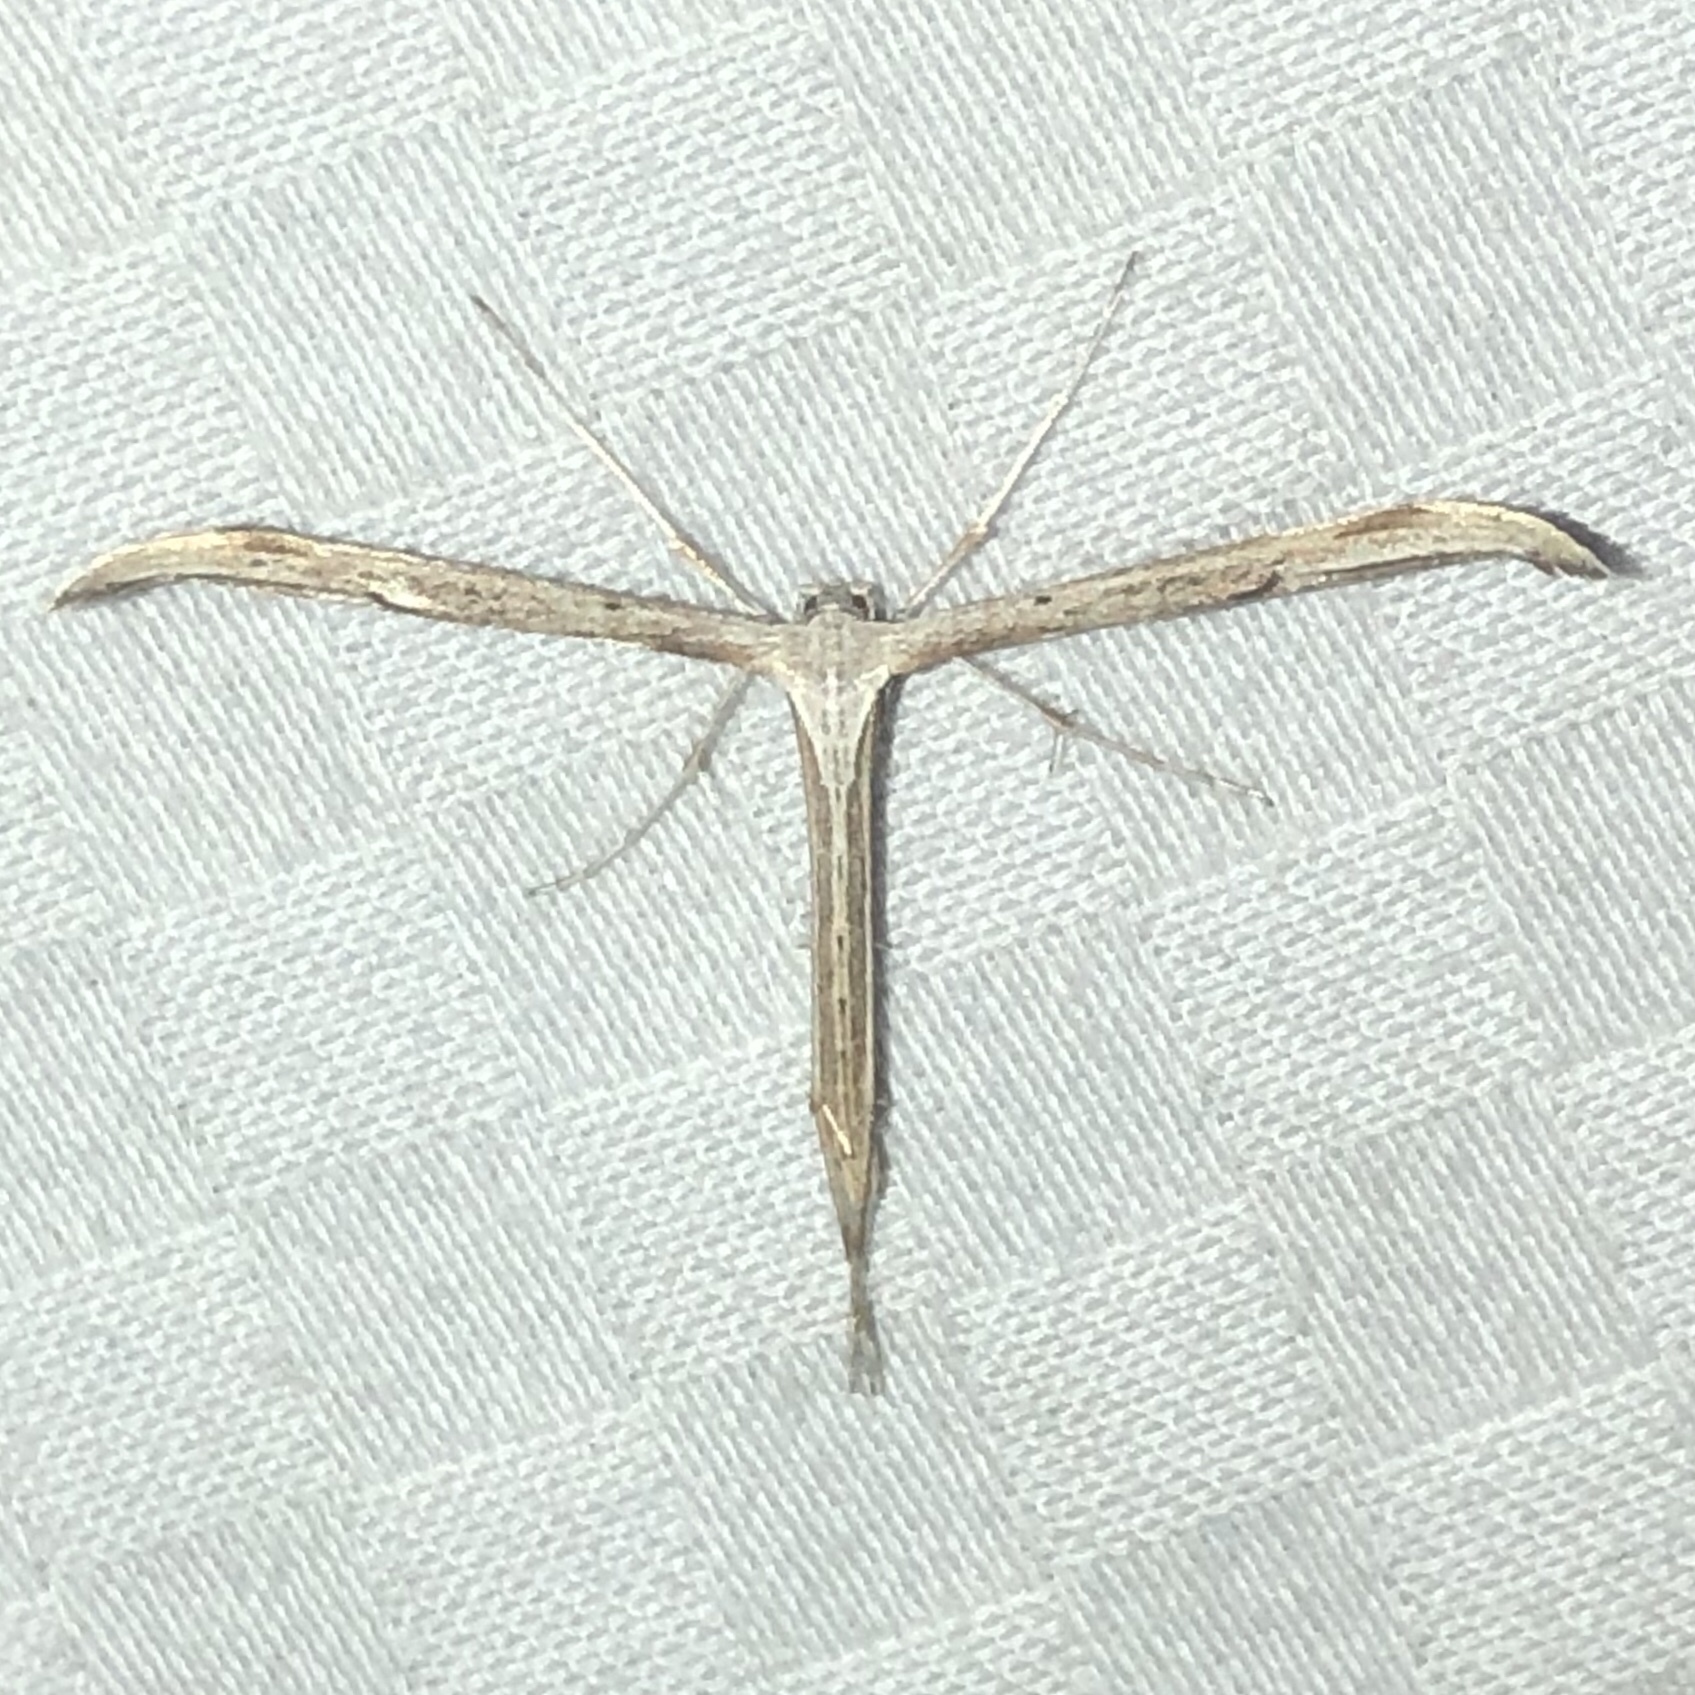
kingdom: Animalia
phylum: Arthropoda
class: Insecta
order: Lepidoptera
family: Pterophoridae
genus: Emmelina
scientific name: Emmelina monodactyla
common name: Common plume
